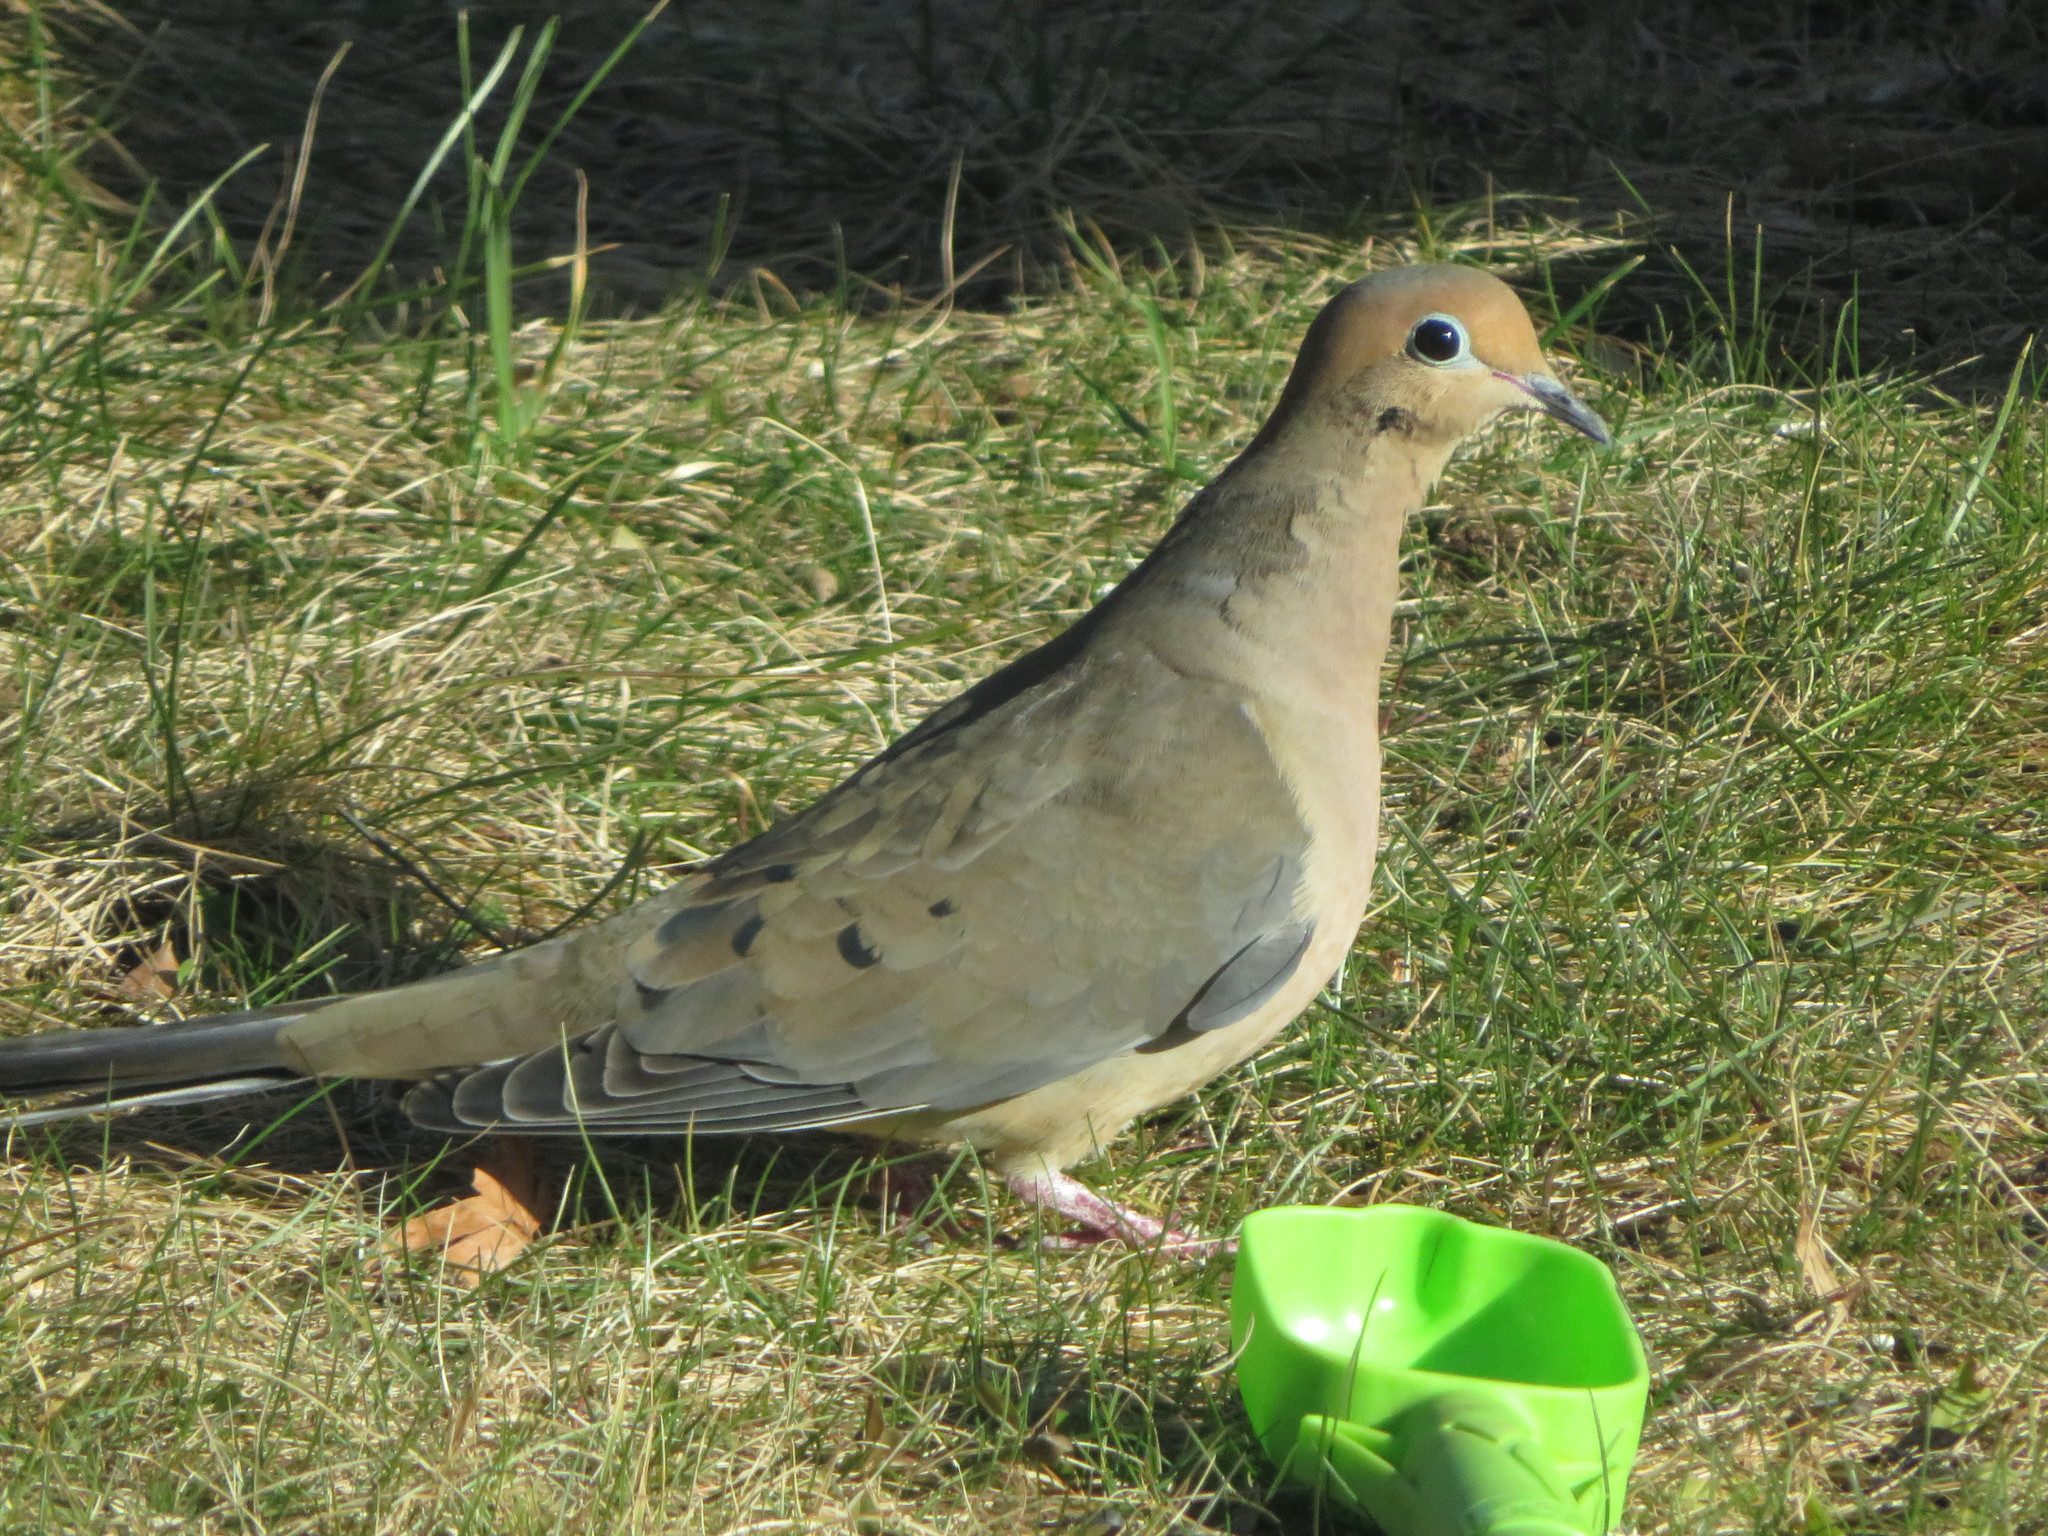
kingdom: Animalia
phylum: Chordata
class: Aves
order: Columbiformes
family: Columbidae
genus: Zenaida
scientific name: Zenaida macroura
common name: Mourning dove
